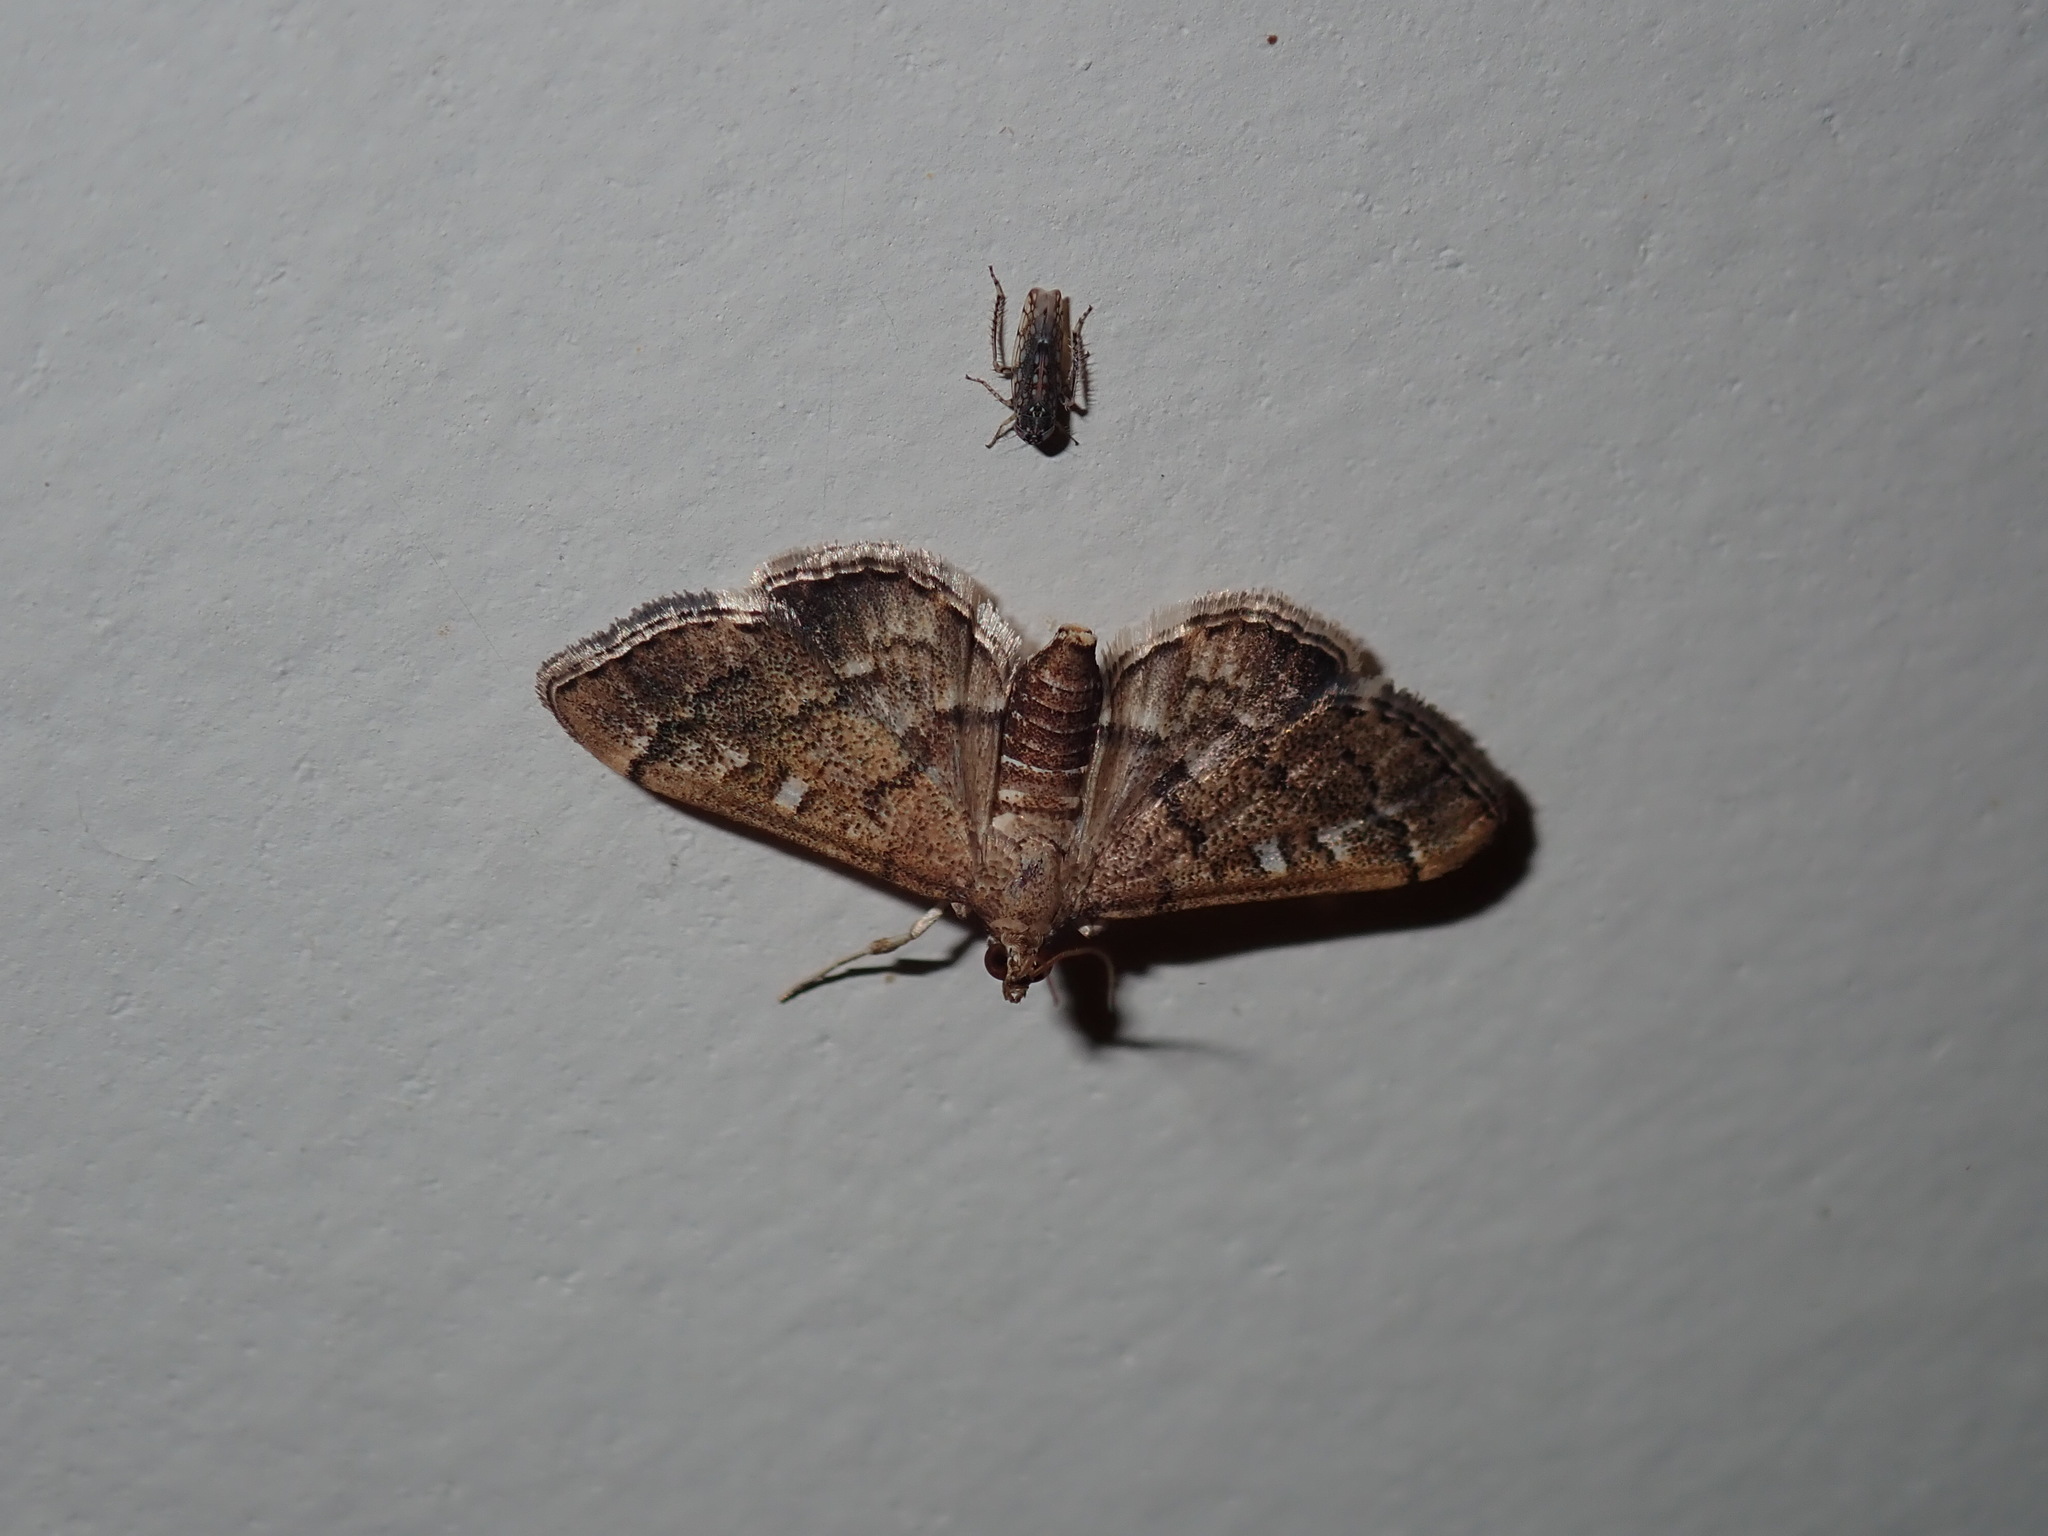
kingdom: Animalia
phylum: Arthropoda
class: Insecta
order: Lepidoptera
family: Crambidae
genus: Nacoleia
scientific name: Nacoleia rhoeoalis
